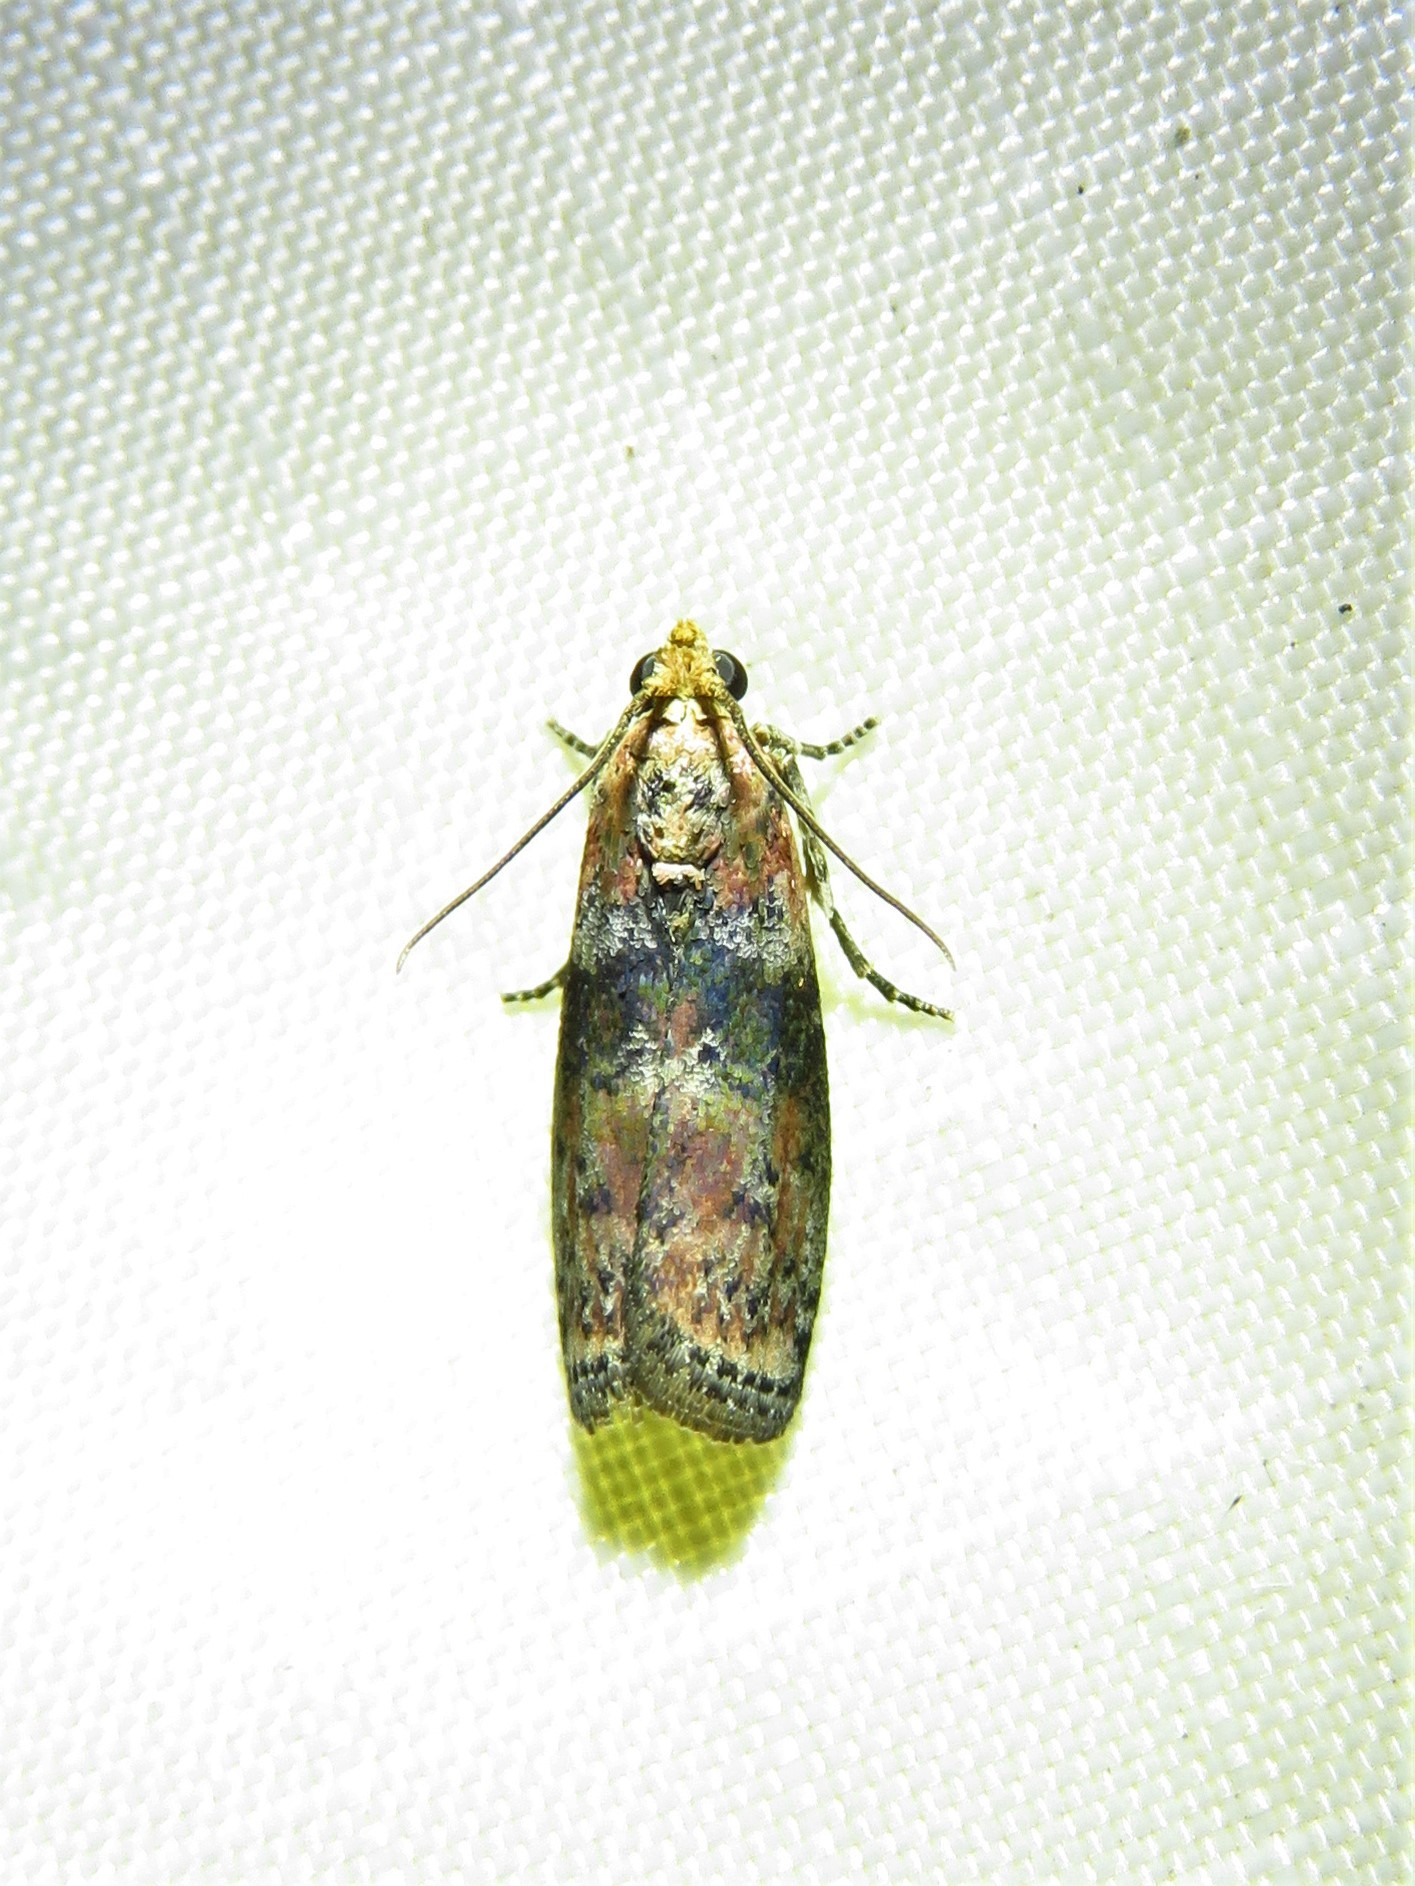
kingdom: Animalia
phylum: Arthropoda
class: Insecta
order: Lepidoptera
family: Pyralidae
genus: Sciota
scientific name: Sciota celtidella
